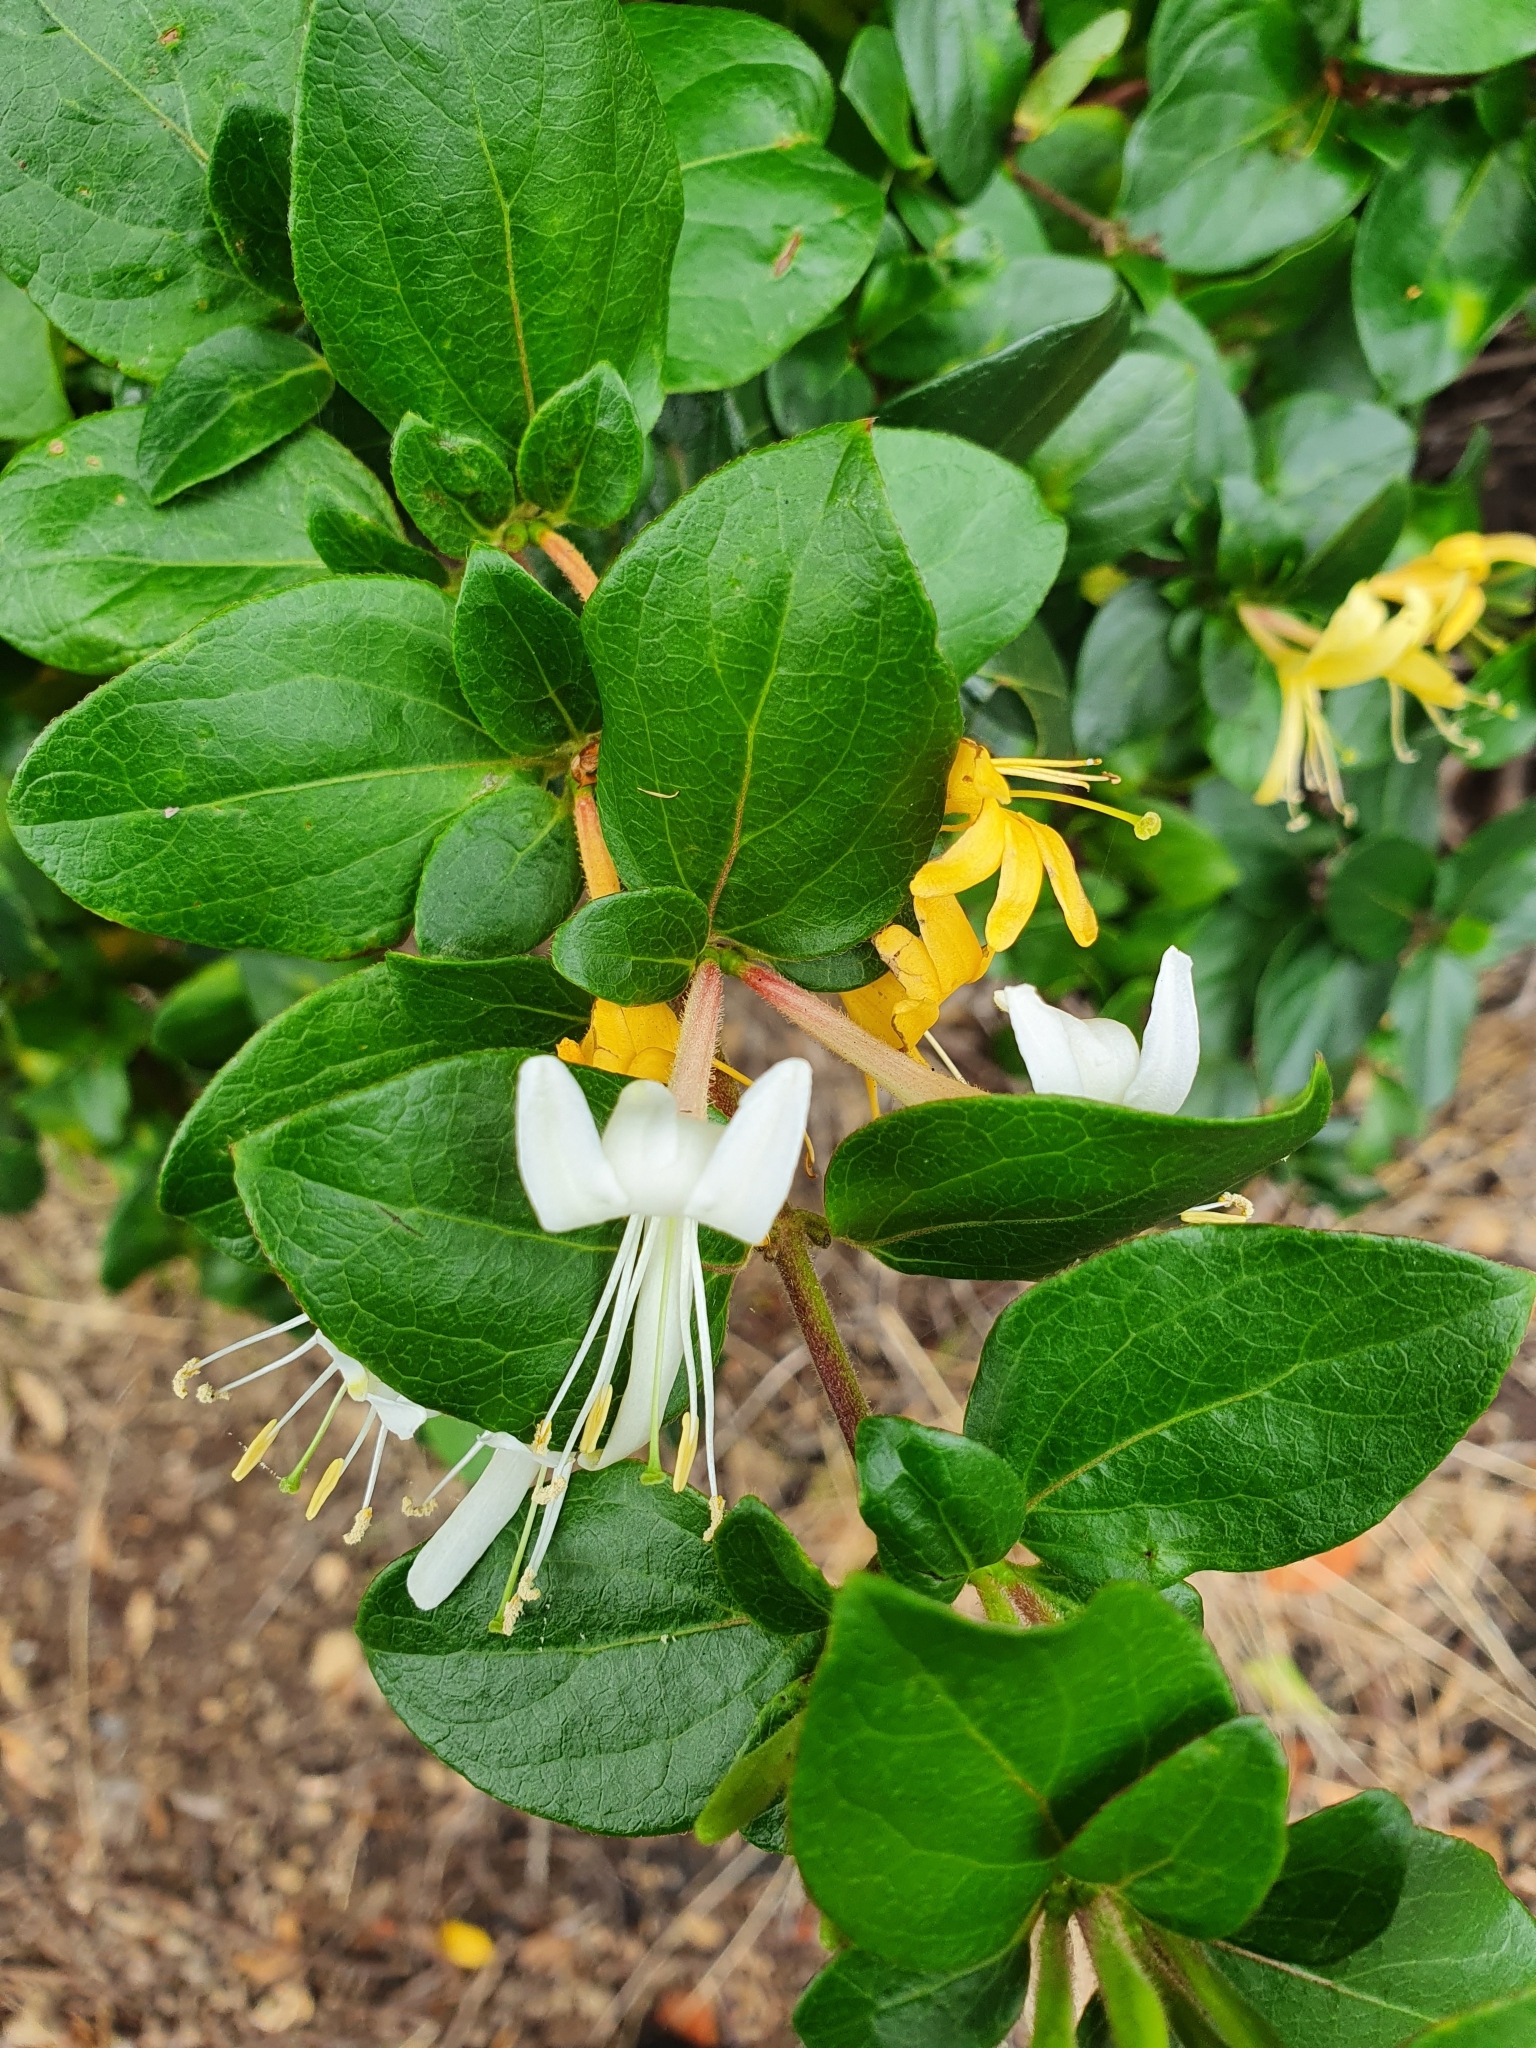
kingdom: Plantae
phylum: Tracheophyta
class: Magnoliopsida
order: Dipsacales
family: Caprifoliaceae
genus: Lonicera
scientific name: Lonicera japonica
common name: Japanese honeysuckle
